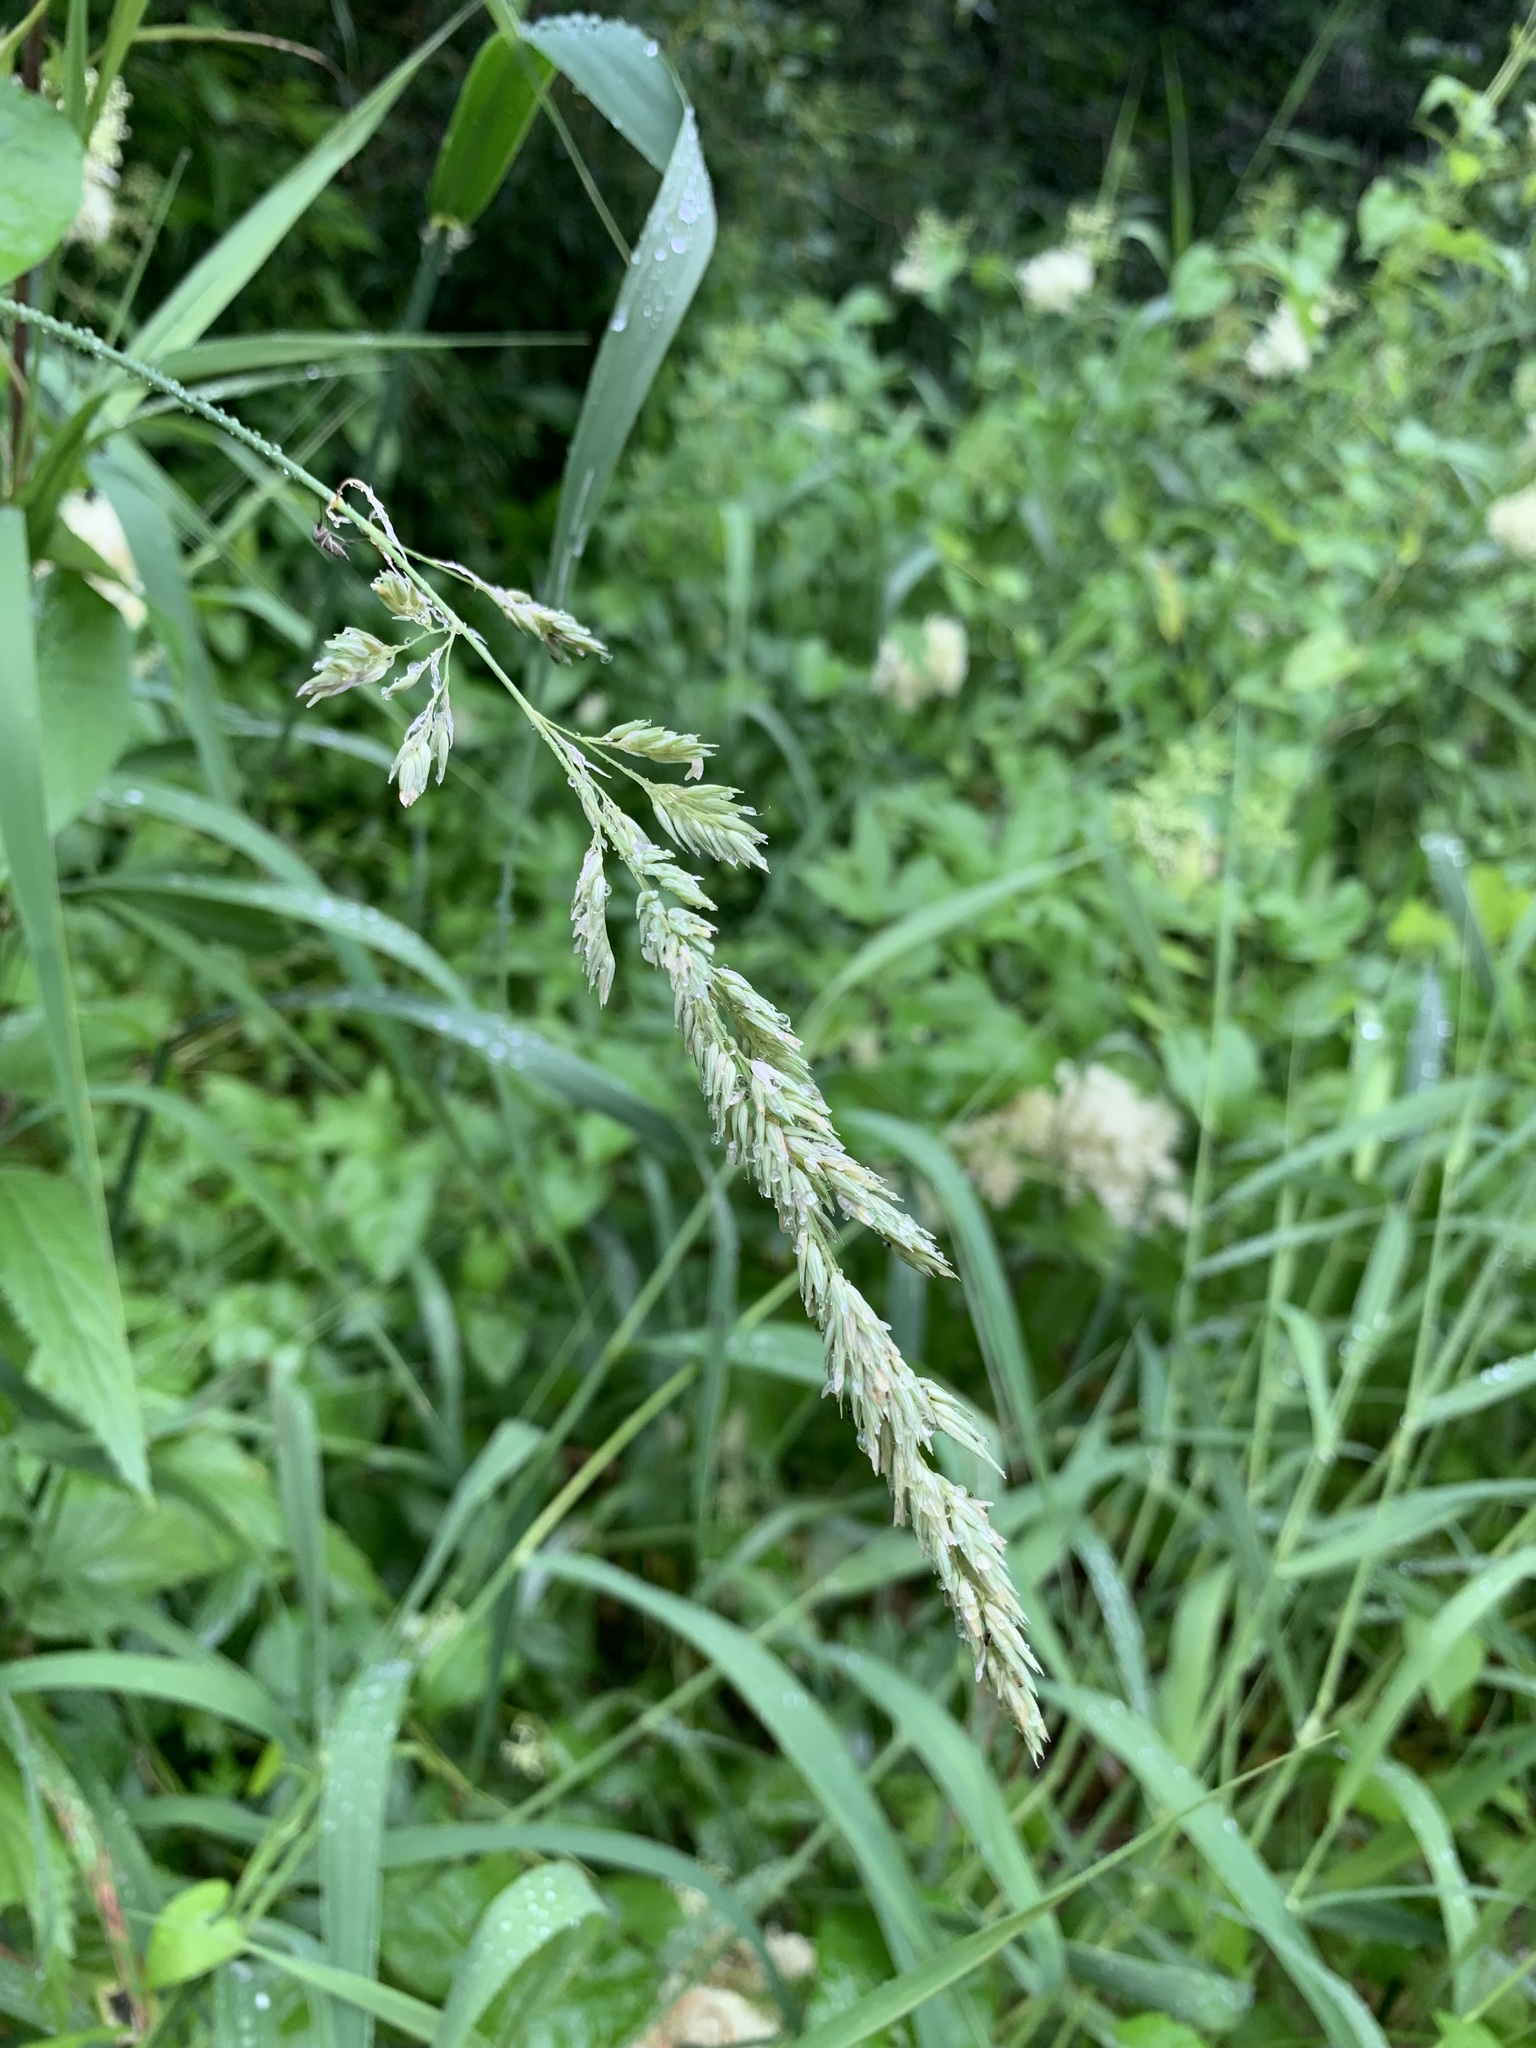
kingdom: Plantae
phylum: Tracheophyta
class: Liliopsida
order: Poales
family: Poaceae
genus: Phalaris
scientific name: Phalaris arundinacea
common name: Reed canary-grass
